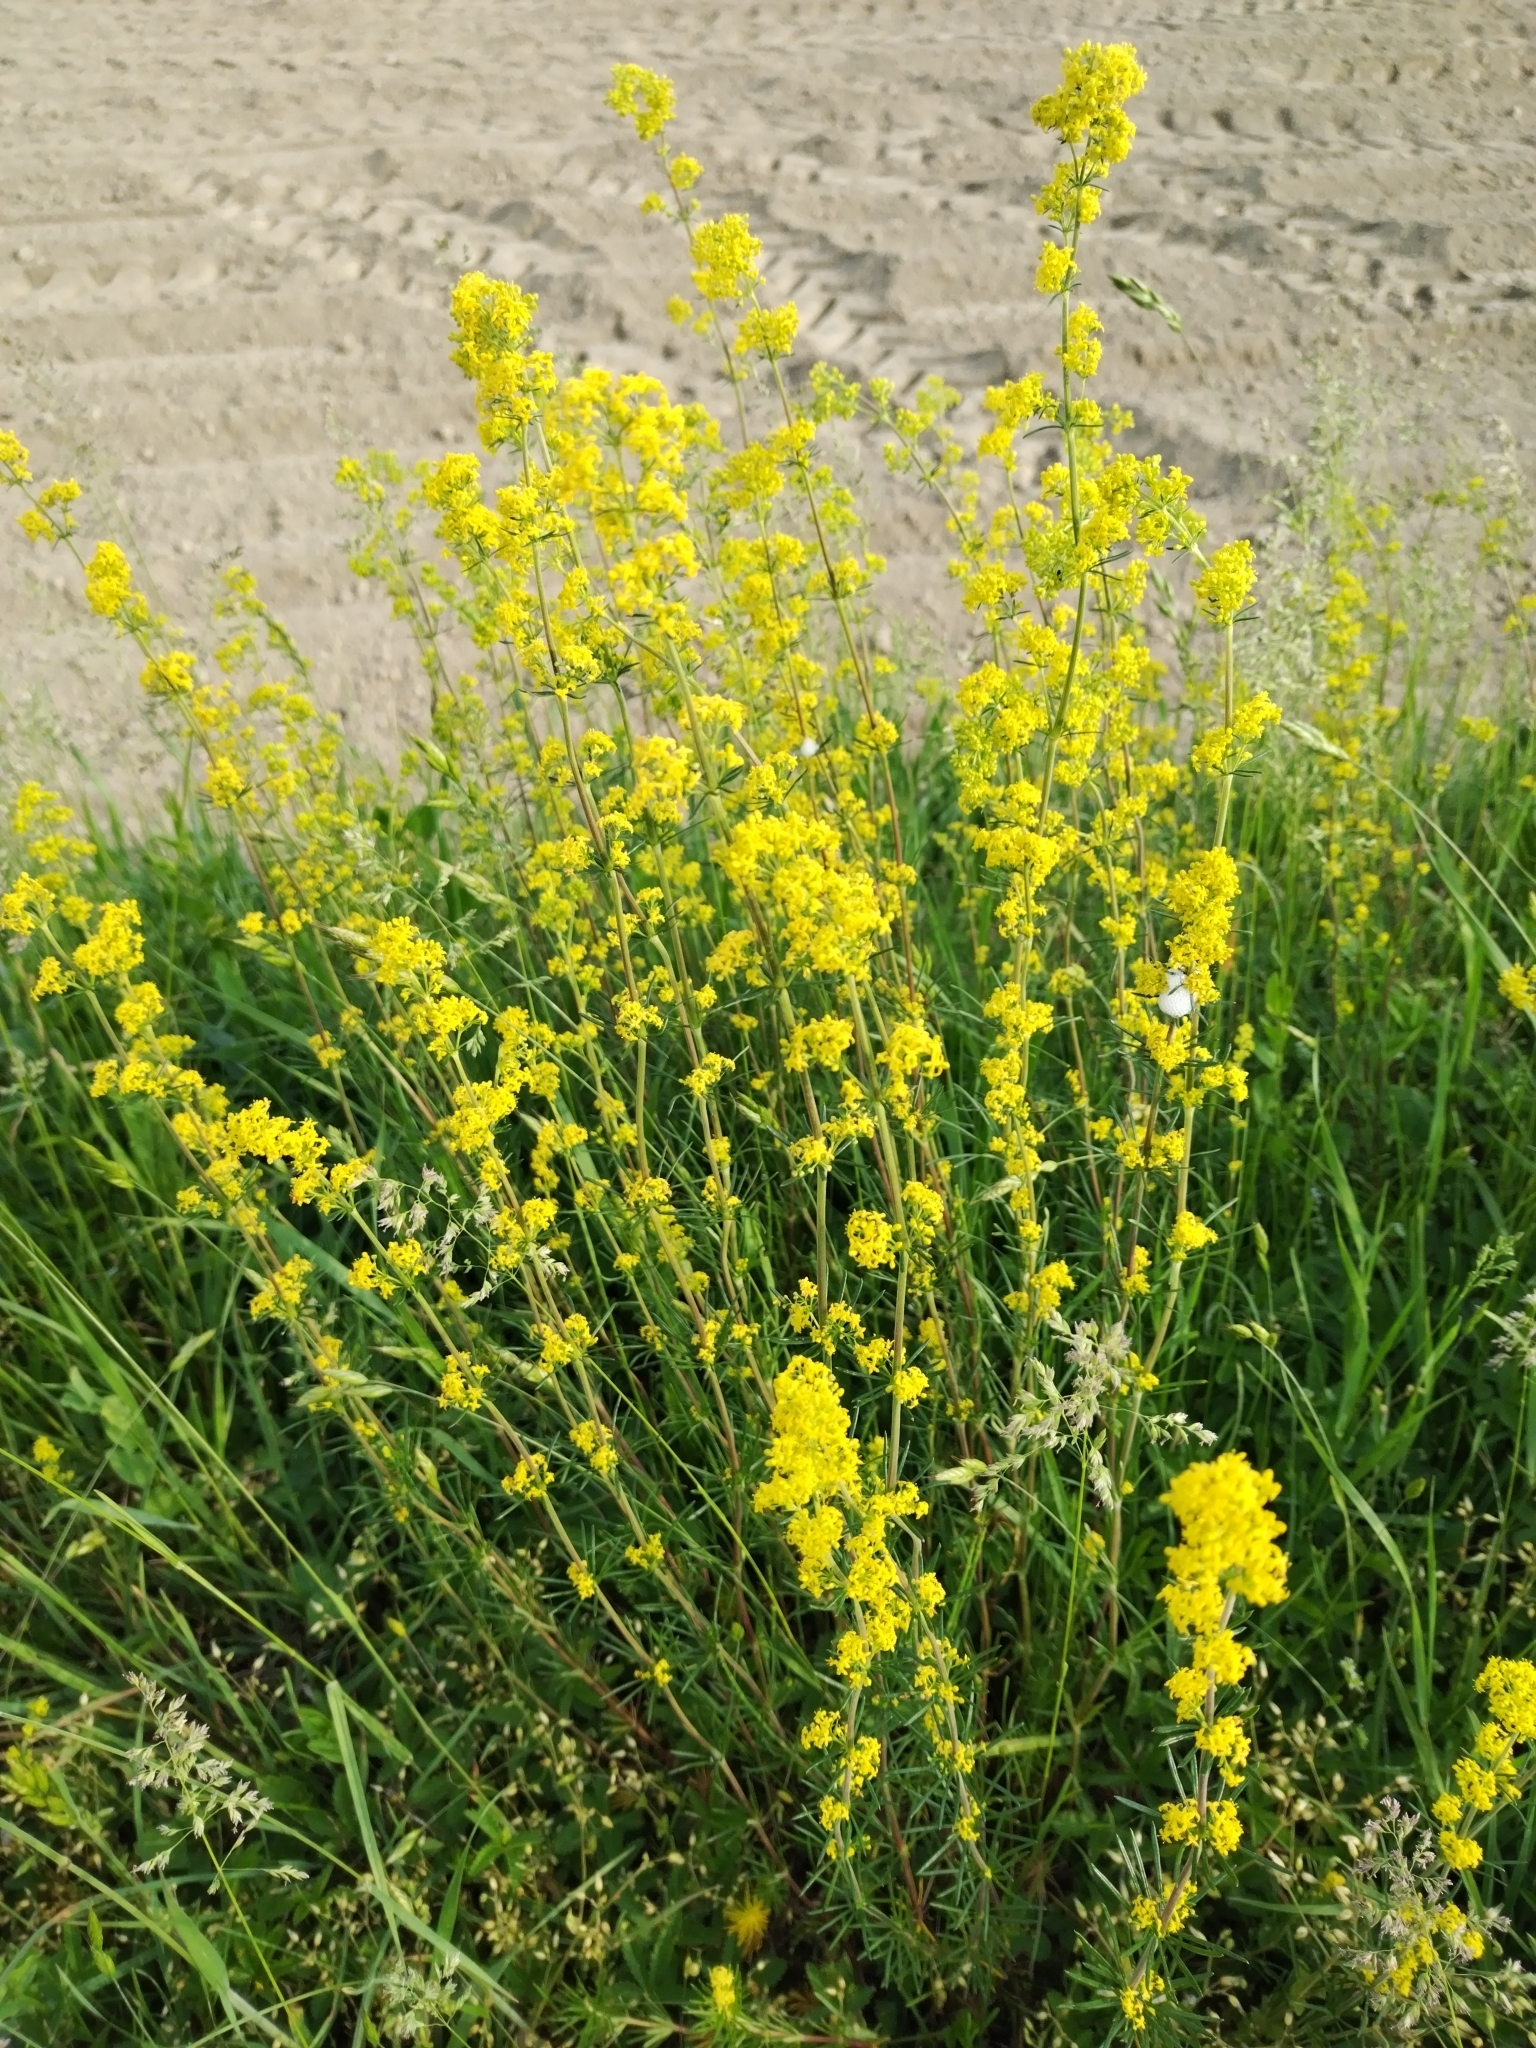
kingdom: Plantae
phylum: Tracheophyta
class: Magnoliopsida
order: Gentianales
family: Rubiaceae
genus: Galium
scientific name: Galium verum
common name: Lady's bedstraw
